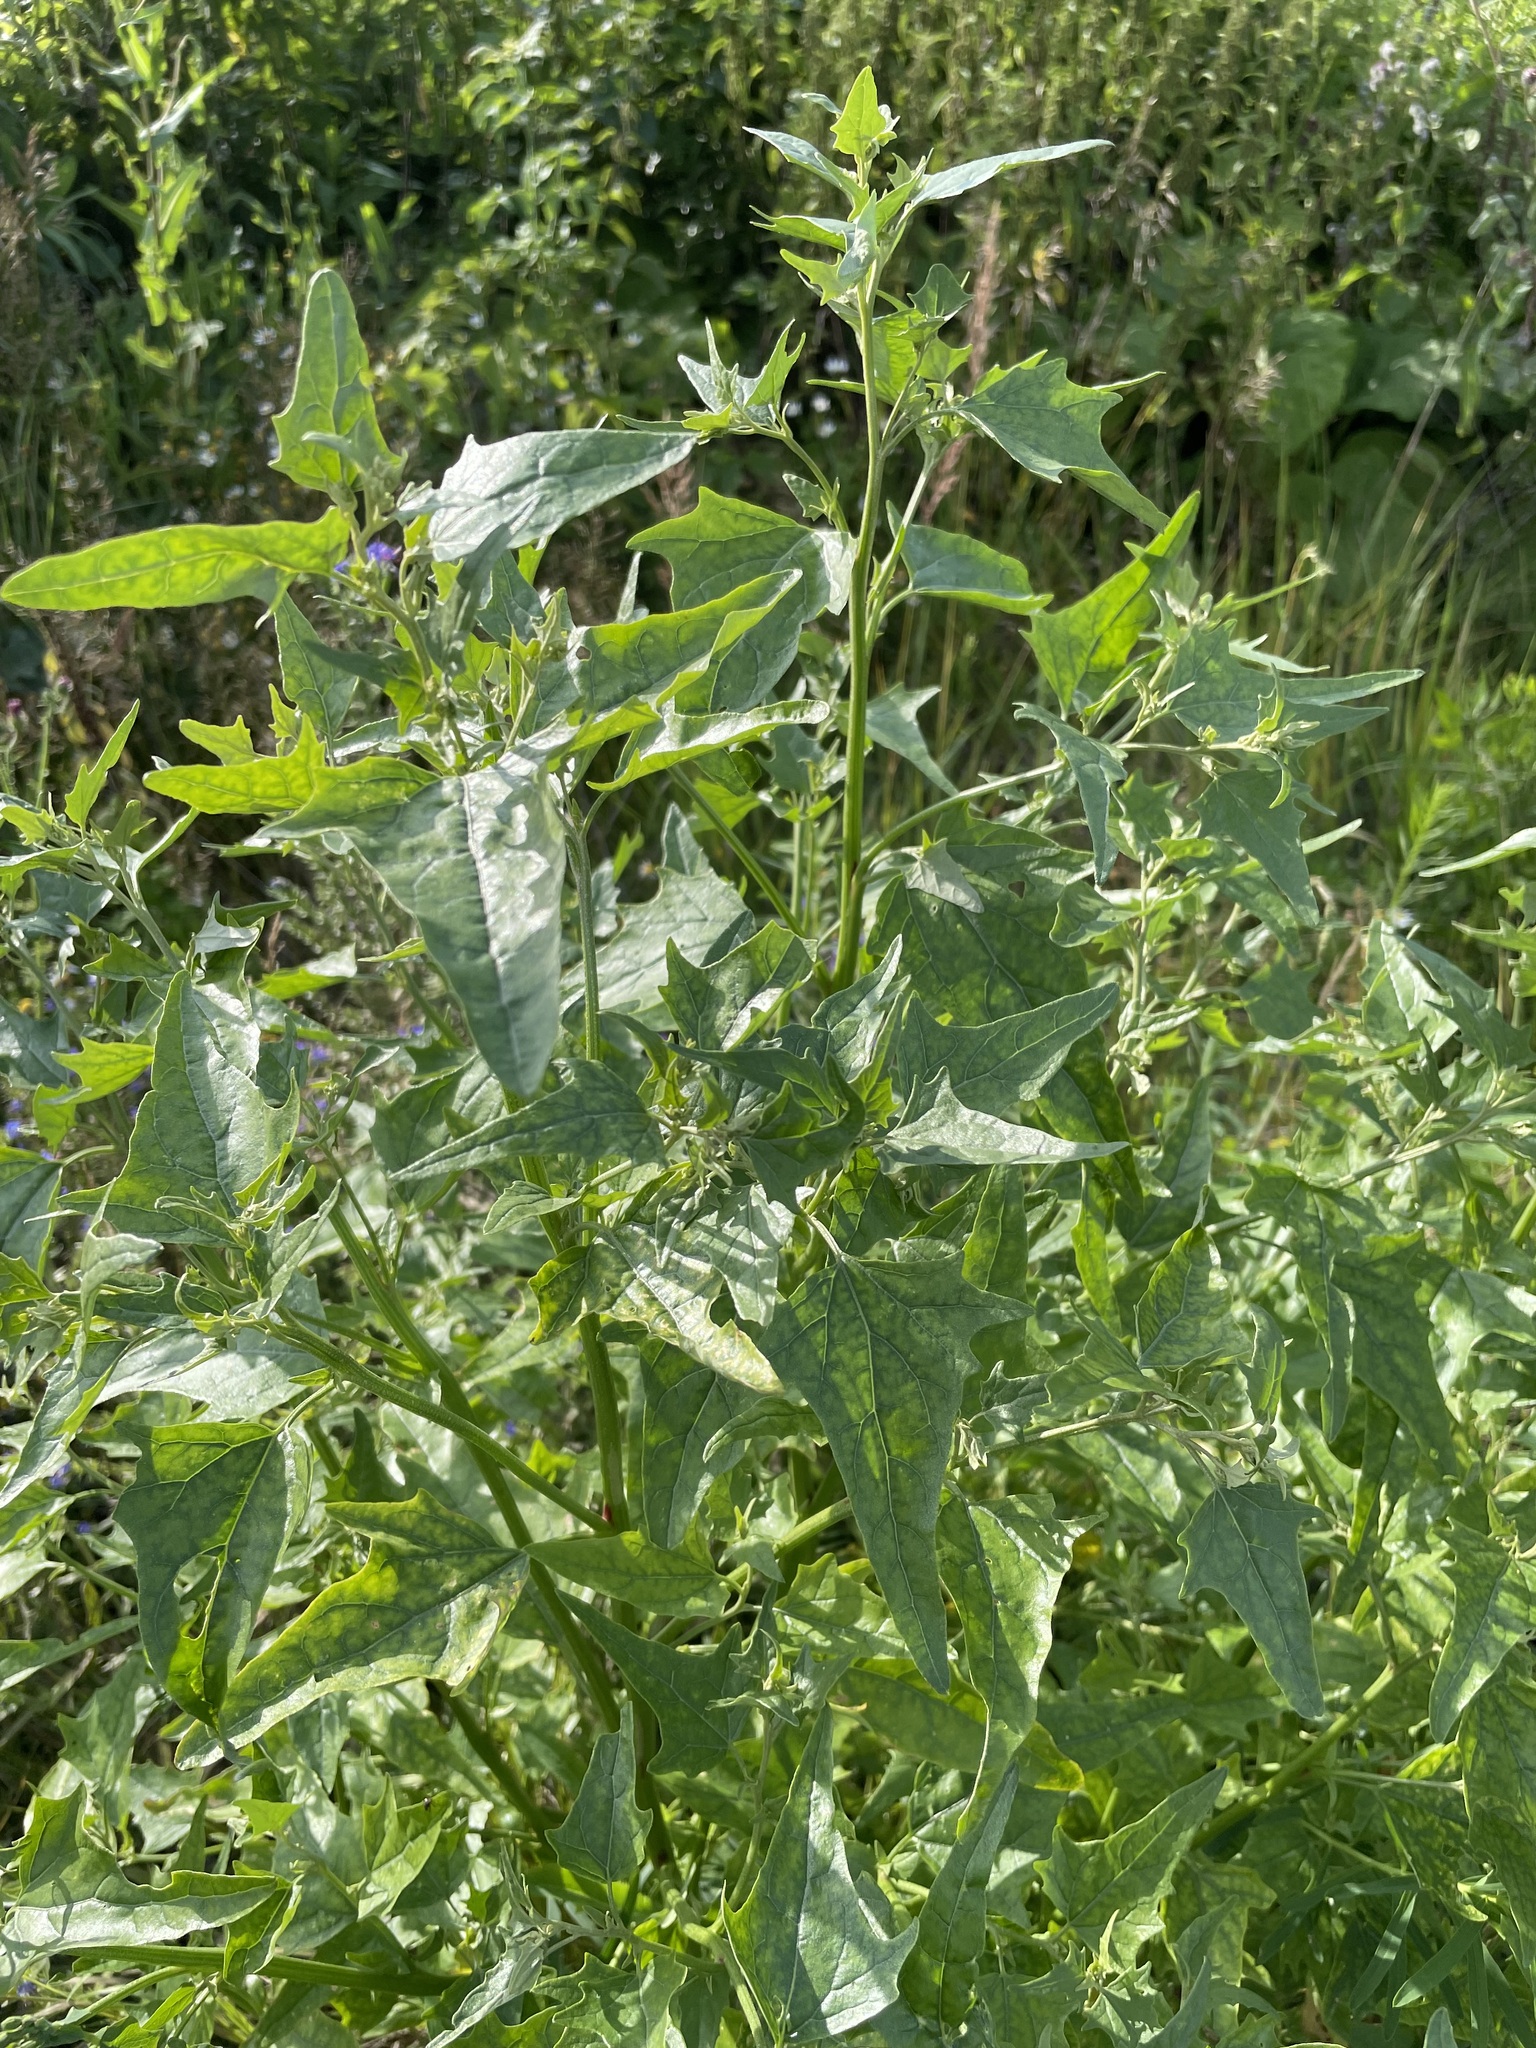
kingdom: Plantae
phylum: Tracheophyta
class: Magnoliopsida
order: Caryophyllales
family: Amaranthaceae
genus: Atriplex
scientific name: Atriplex sagittata
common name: Purple orache
